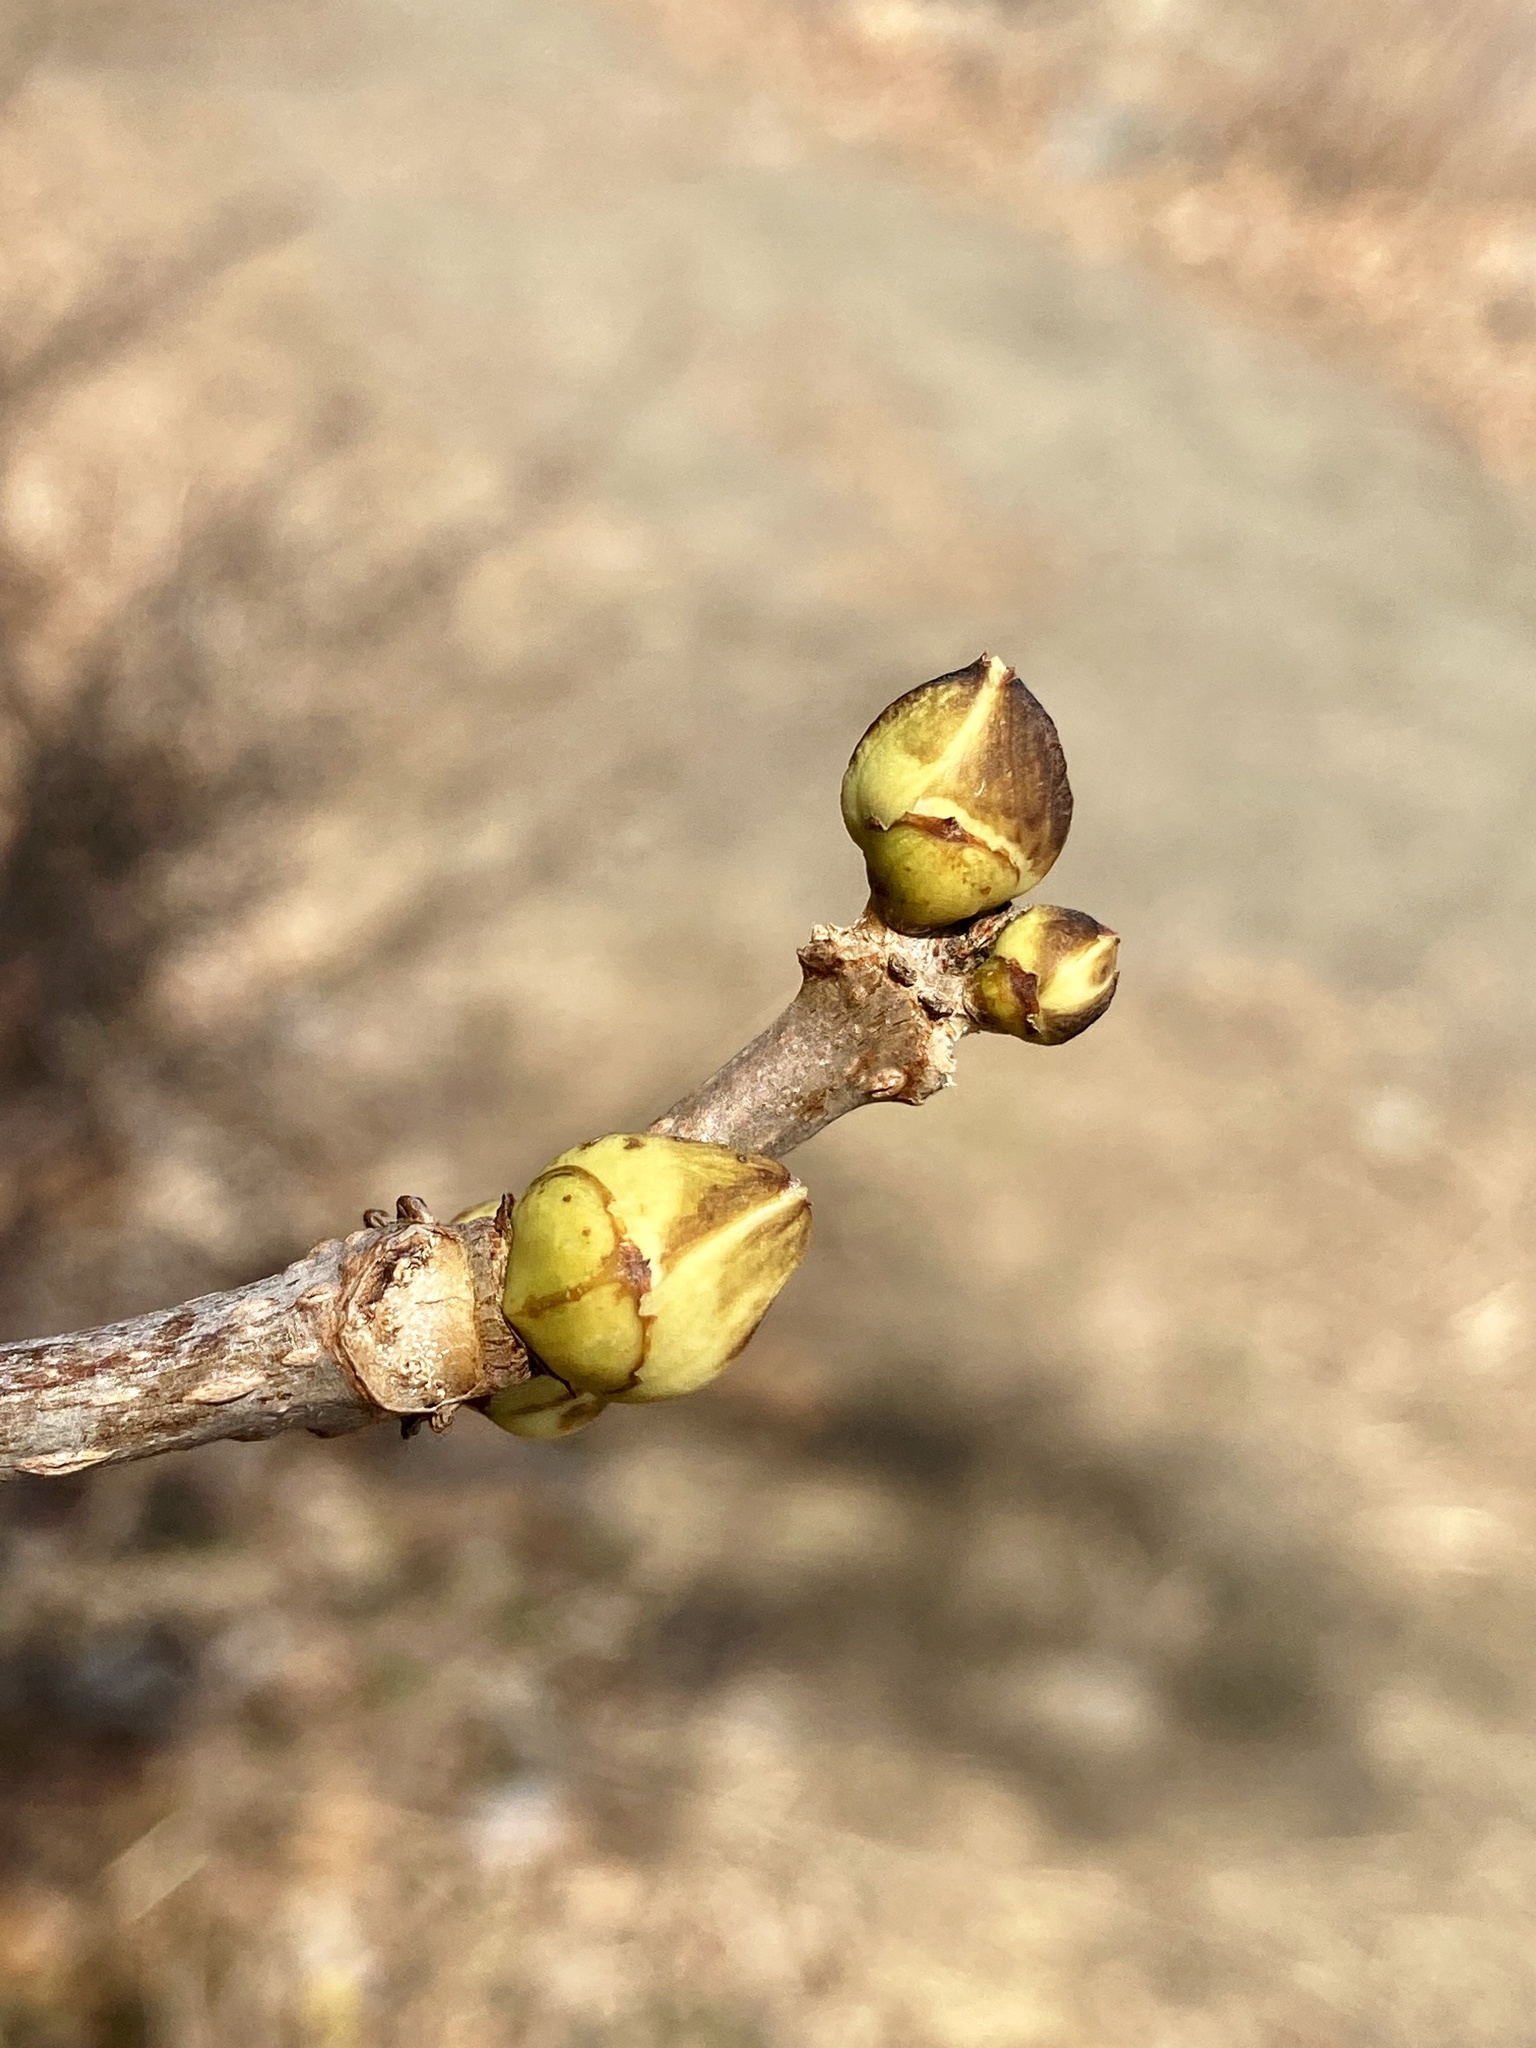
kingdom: Plantae
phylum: Tracheophyta
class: Magnoliopsida
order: Dipsacales
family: Viburnaceae
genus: Sambucus
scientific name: Sambucus racemosa
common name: Red-berried elder
